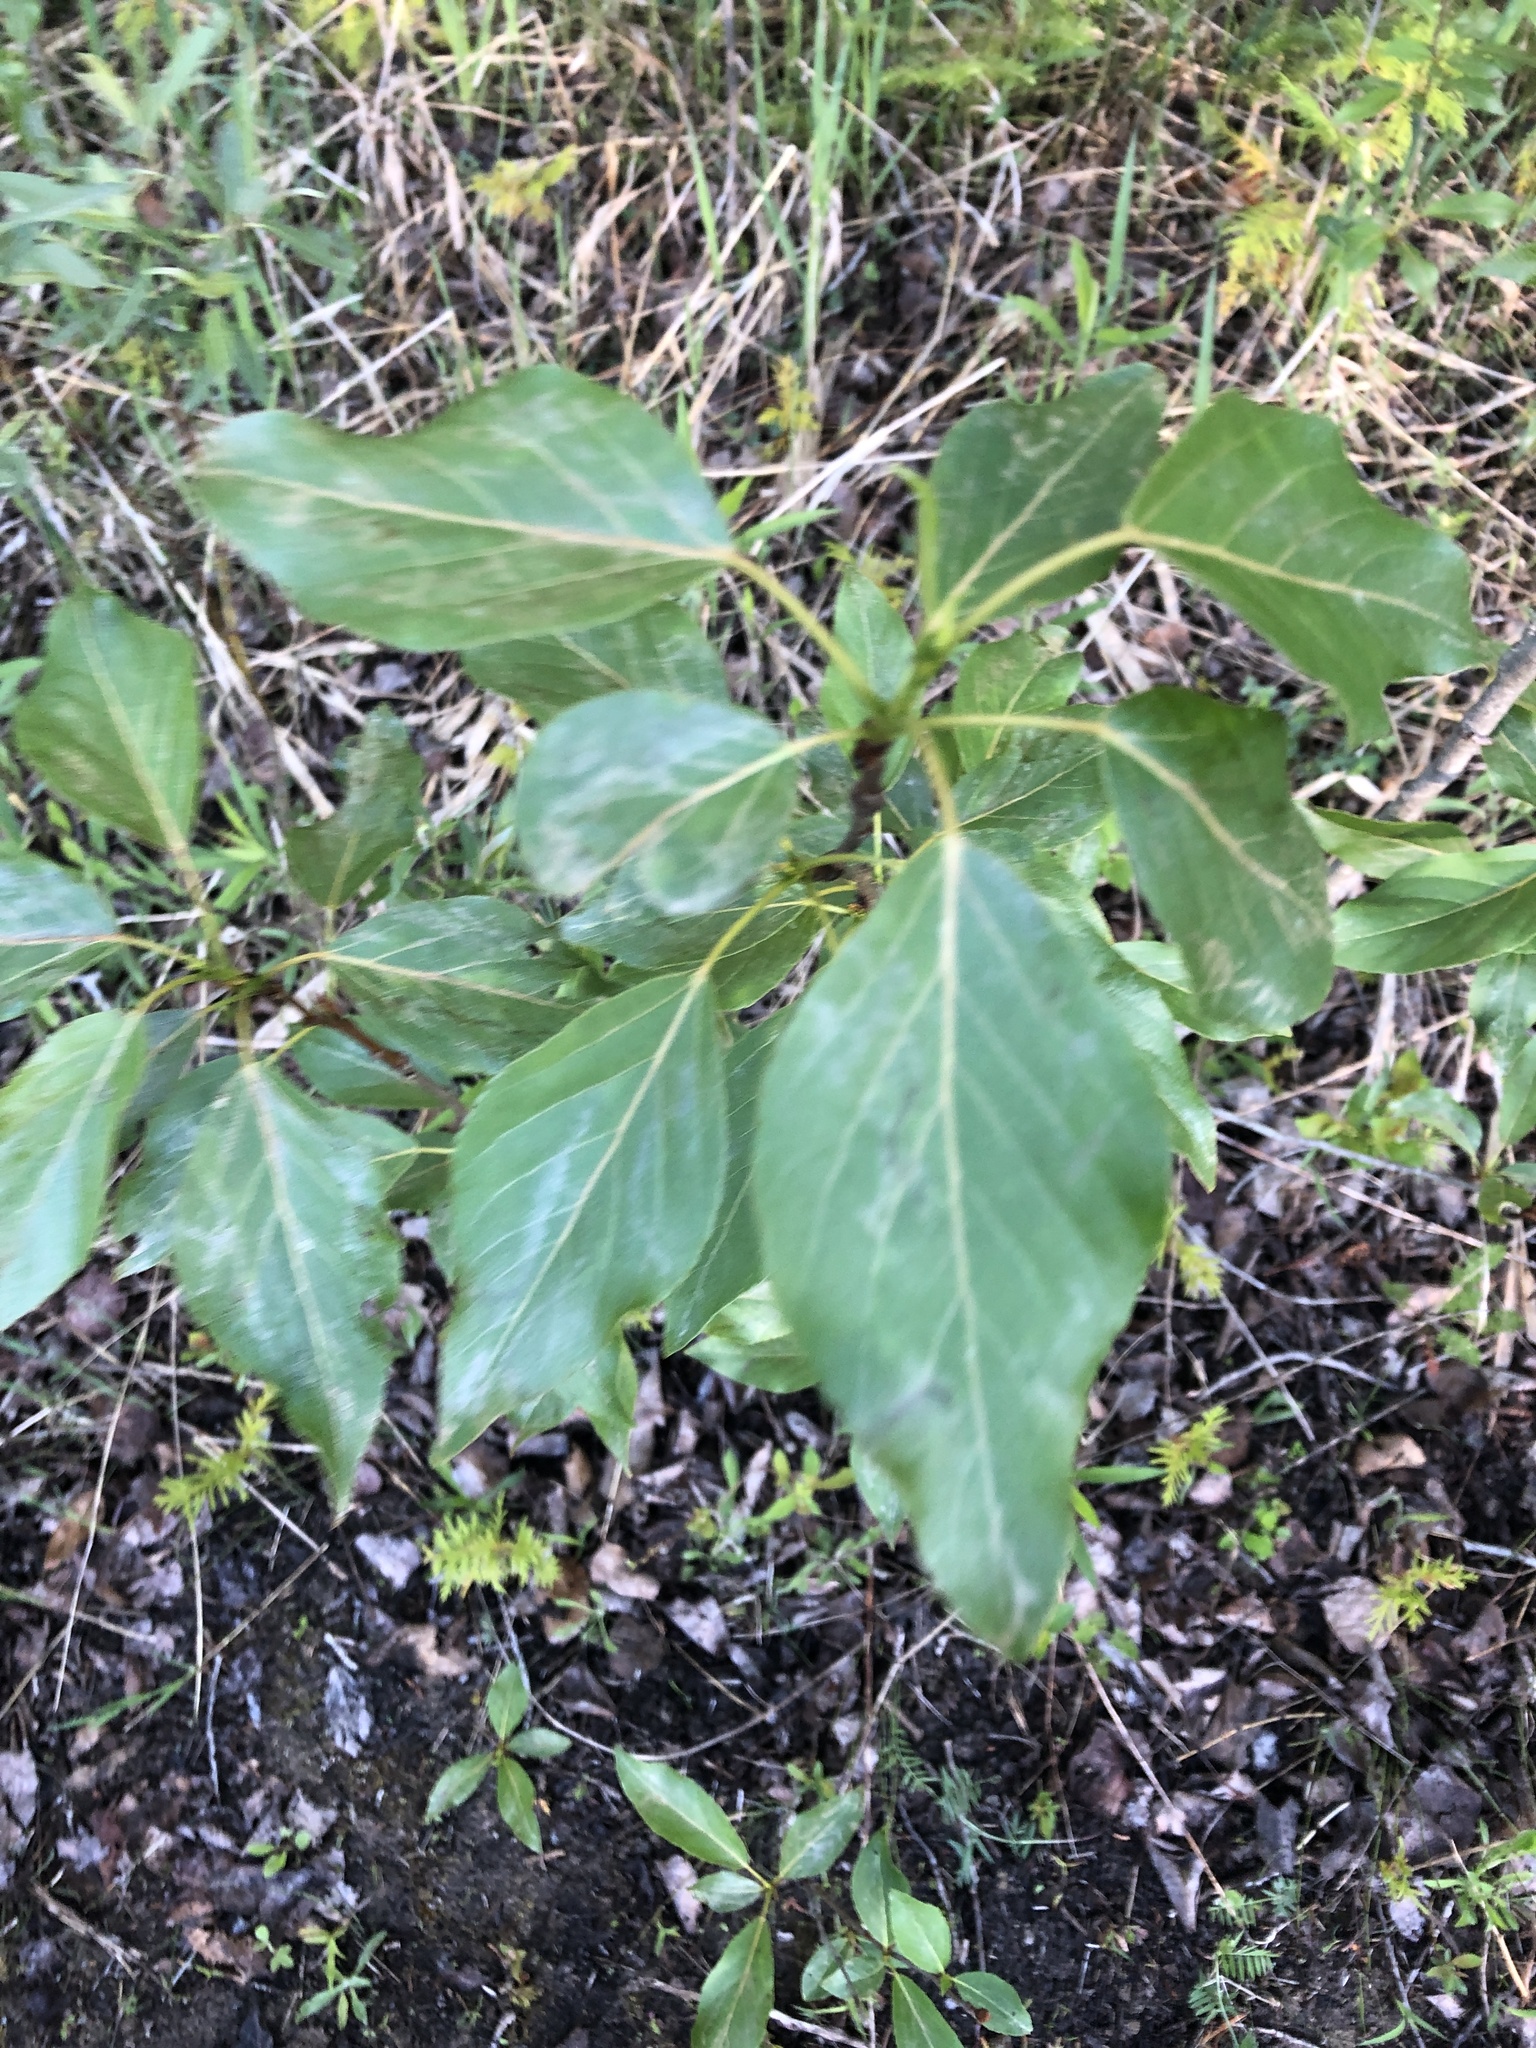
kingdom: Plantae
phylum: Tracheophyta
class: Magnoliopsida
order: Malpighiales
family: Salicaceae
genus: Populus
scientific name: Populus balsamifera
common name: Balsam poplar
